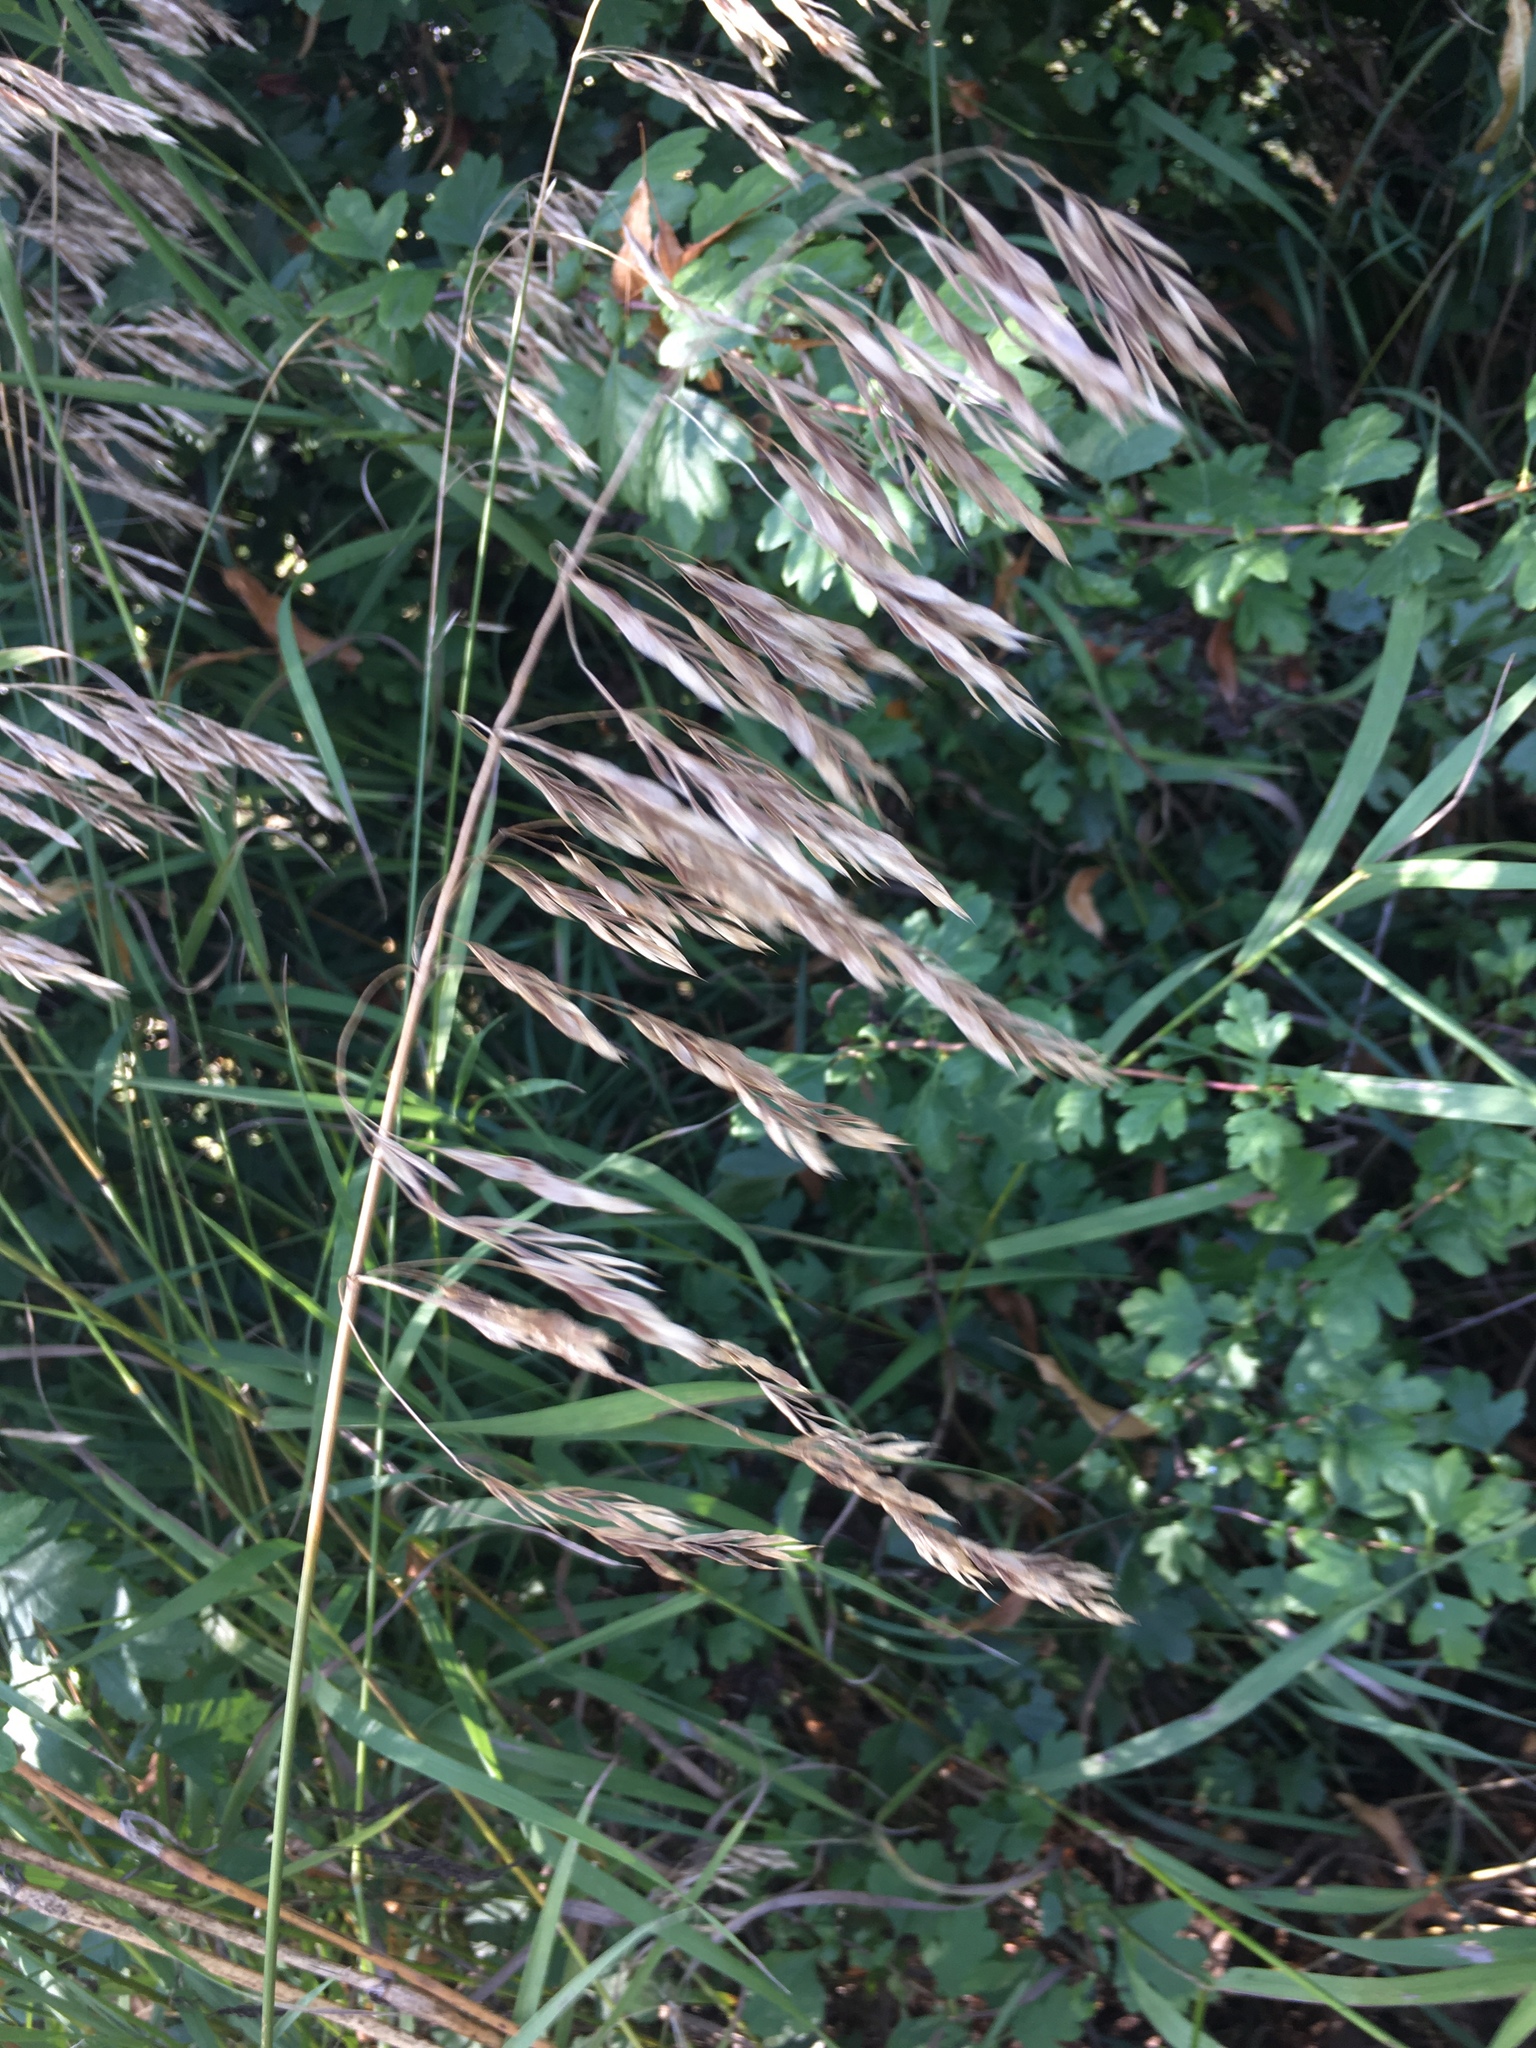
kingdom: Plantae
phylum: Tracheophyta
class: Liliopsida
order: Poales
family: Poaceae
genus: Bromus
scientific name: Bromus inermis
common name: Smooth brome
